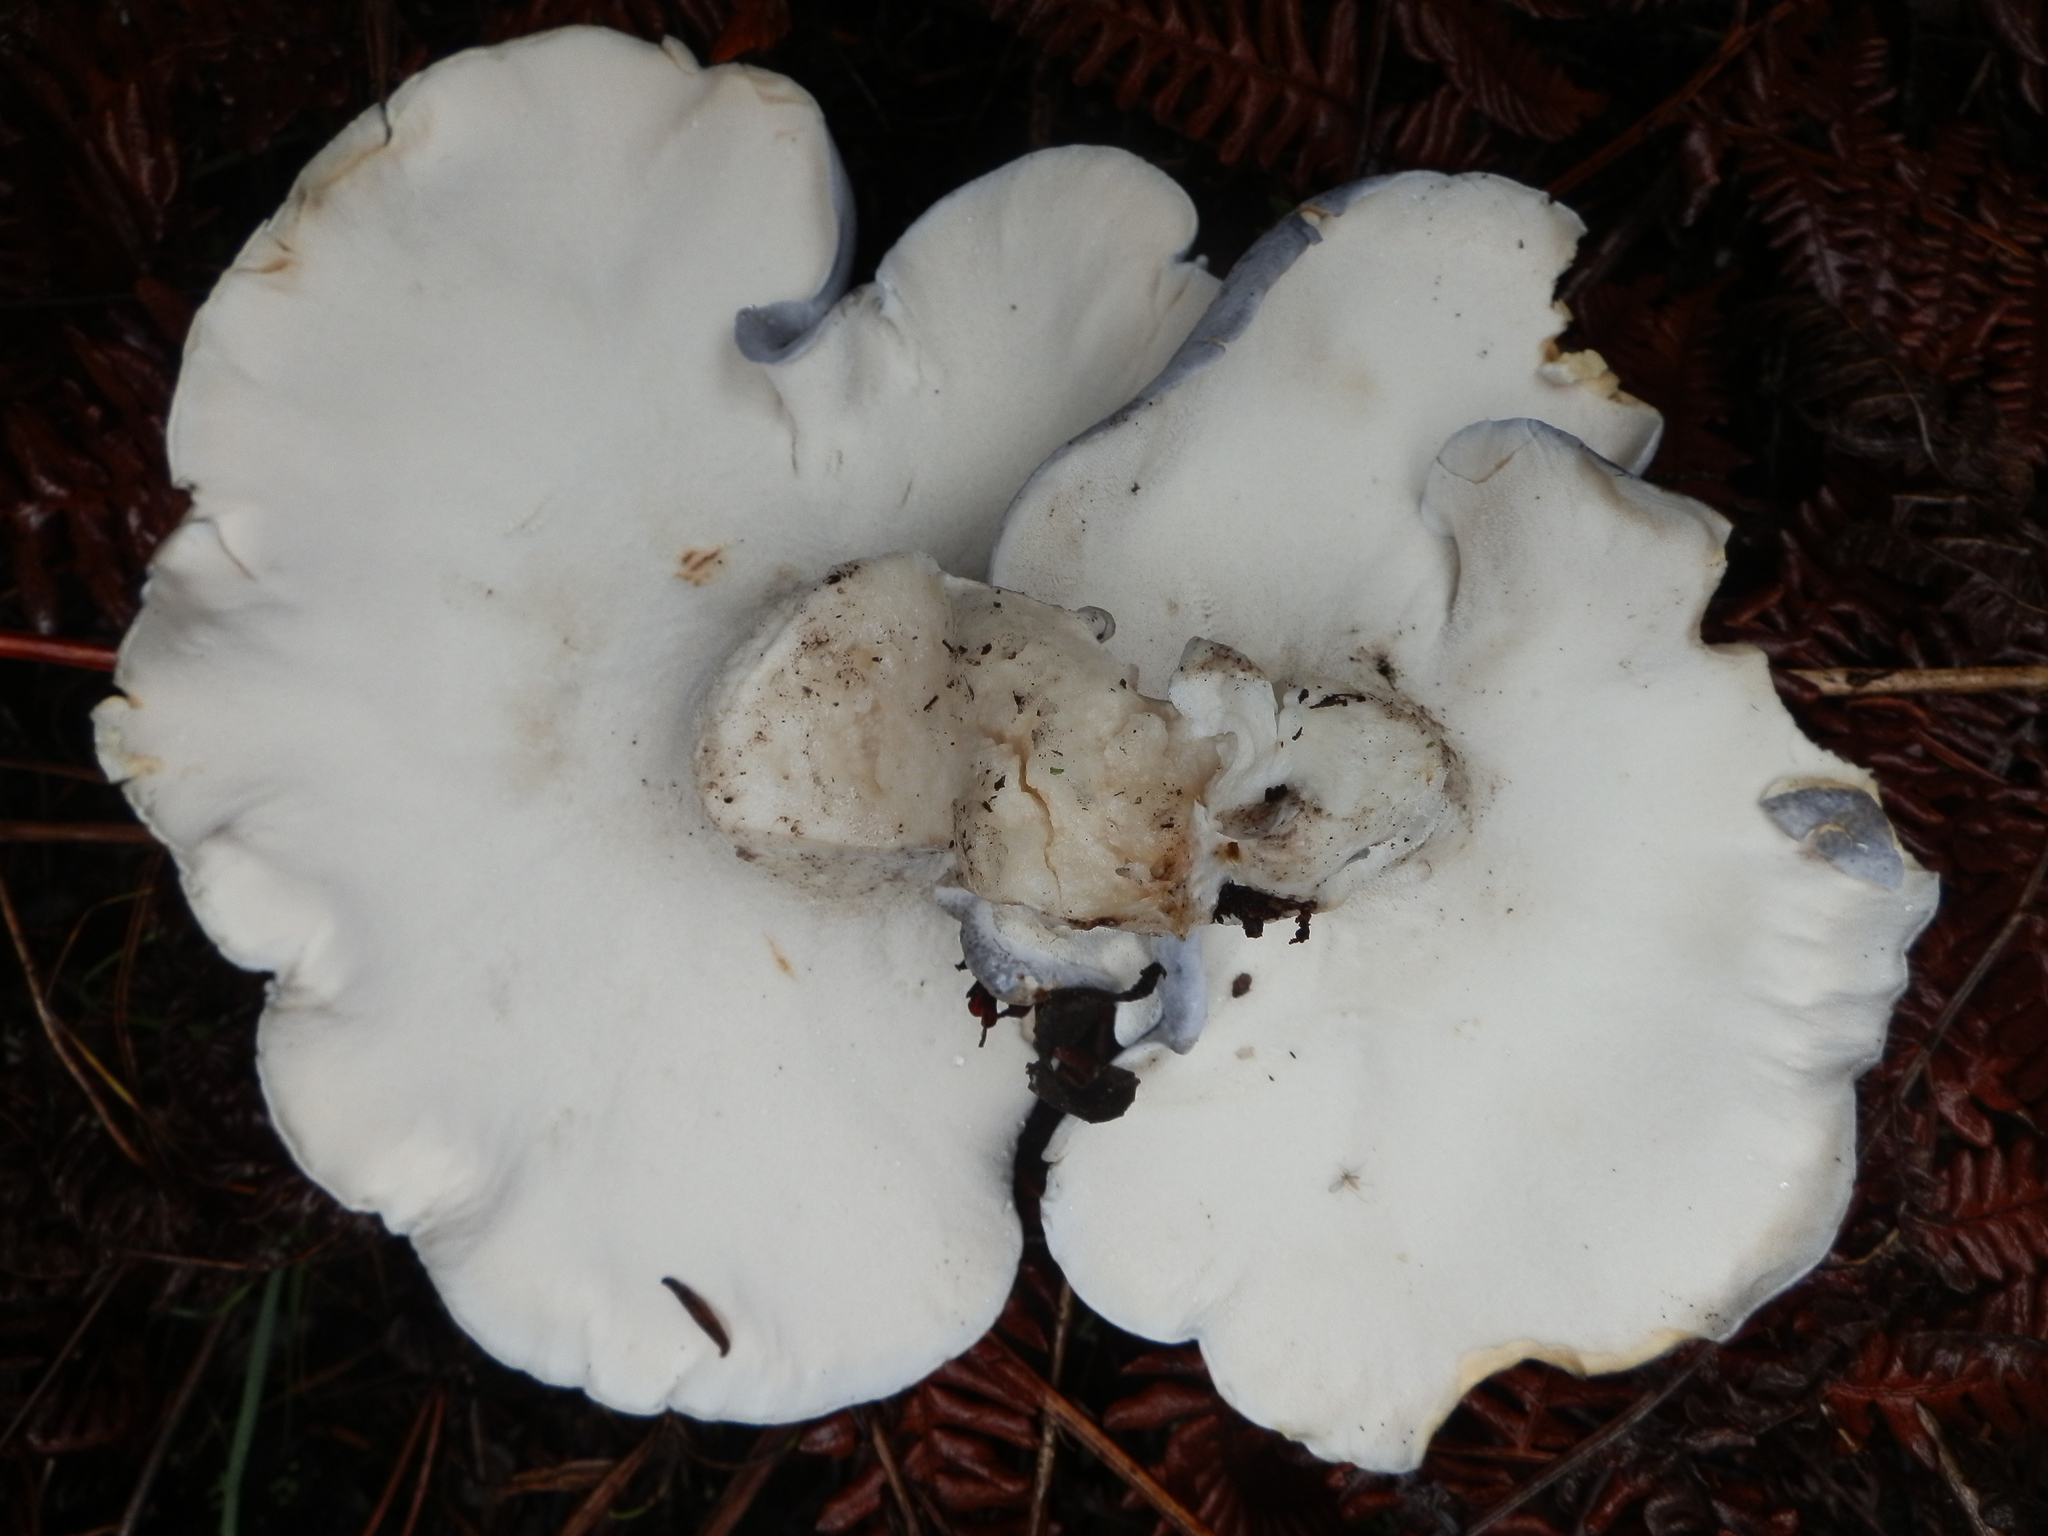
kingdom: Fungi
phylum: Basidiomycota
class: Agaricomycetes
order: Russulales
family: Albatrellaceae
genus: Albatrellopsis
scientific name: Albatrellopsis flettii
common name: Blue polypore
